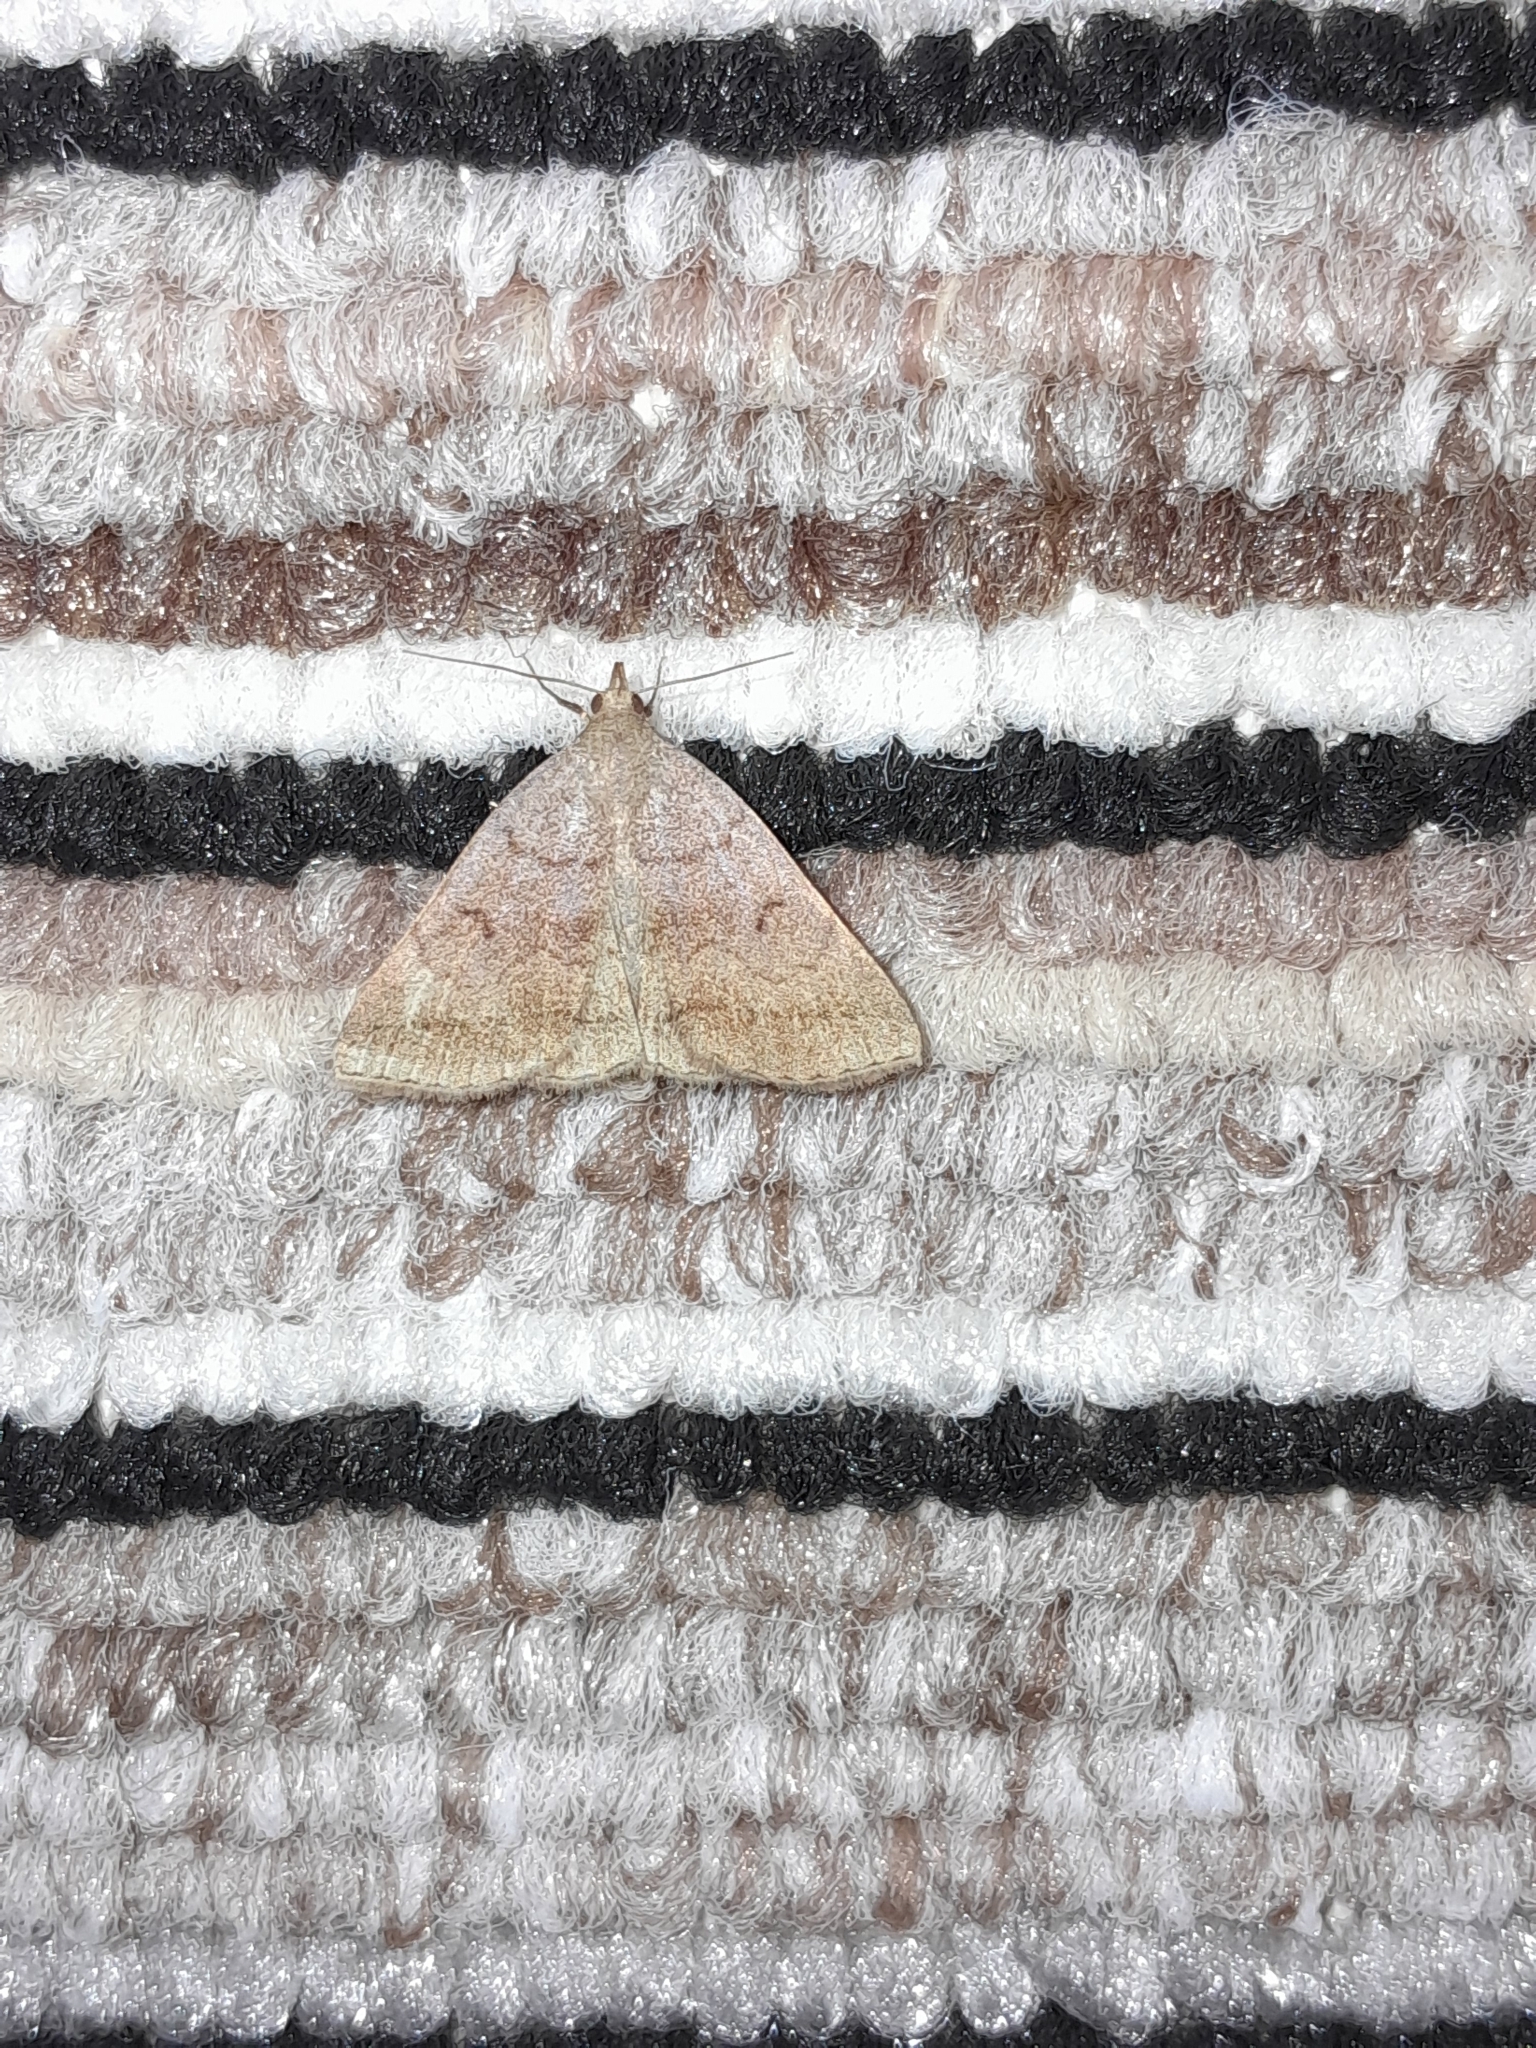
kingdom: Animalia
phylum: Arthropoda
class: Insecta
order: Lepidoptera
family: Erebidae
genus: Zanclognatha
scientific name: Zanclognatha lunalis
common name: Jubilee fan-foot
